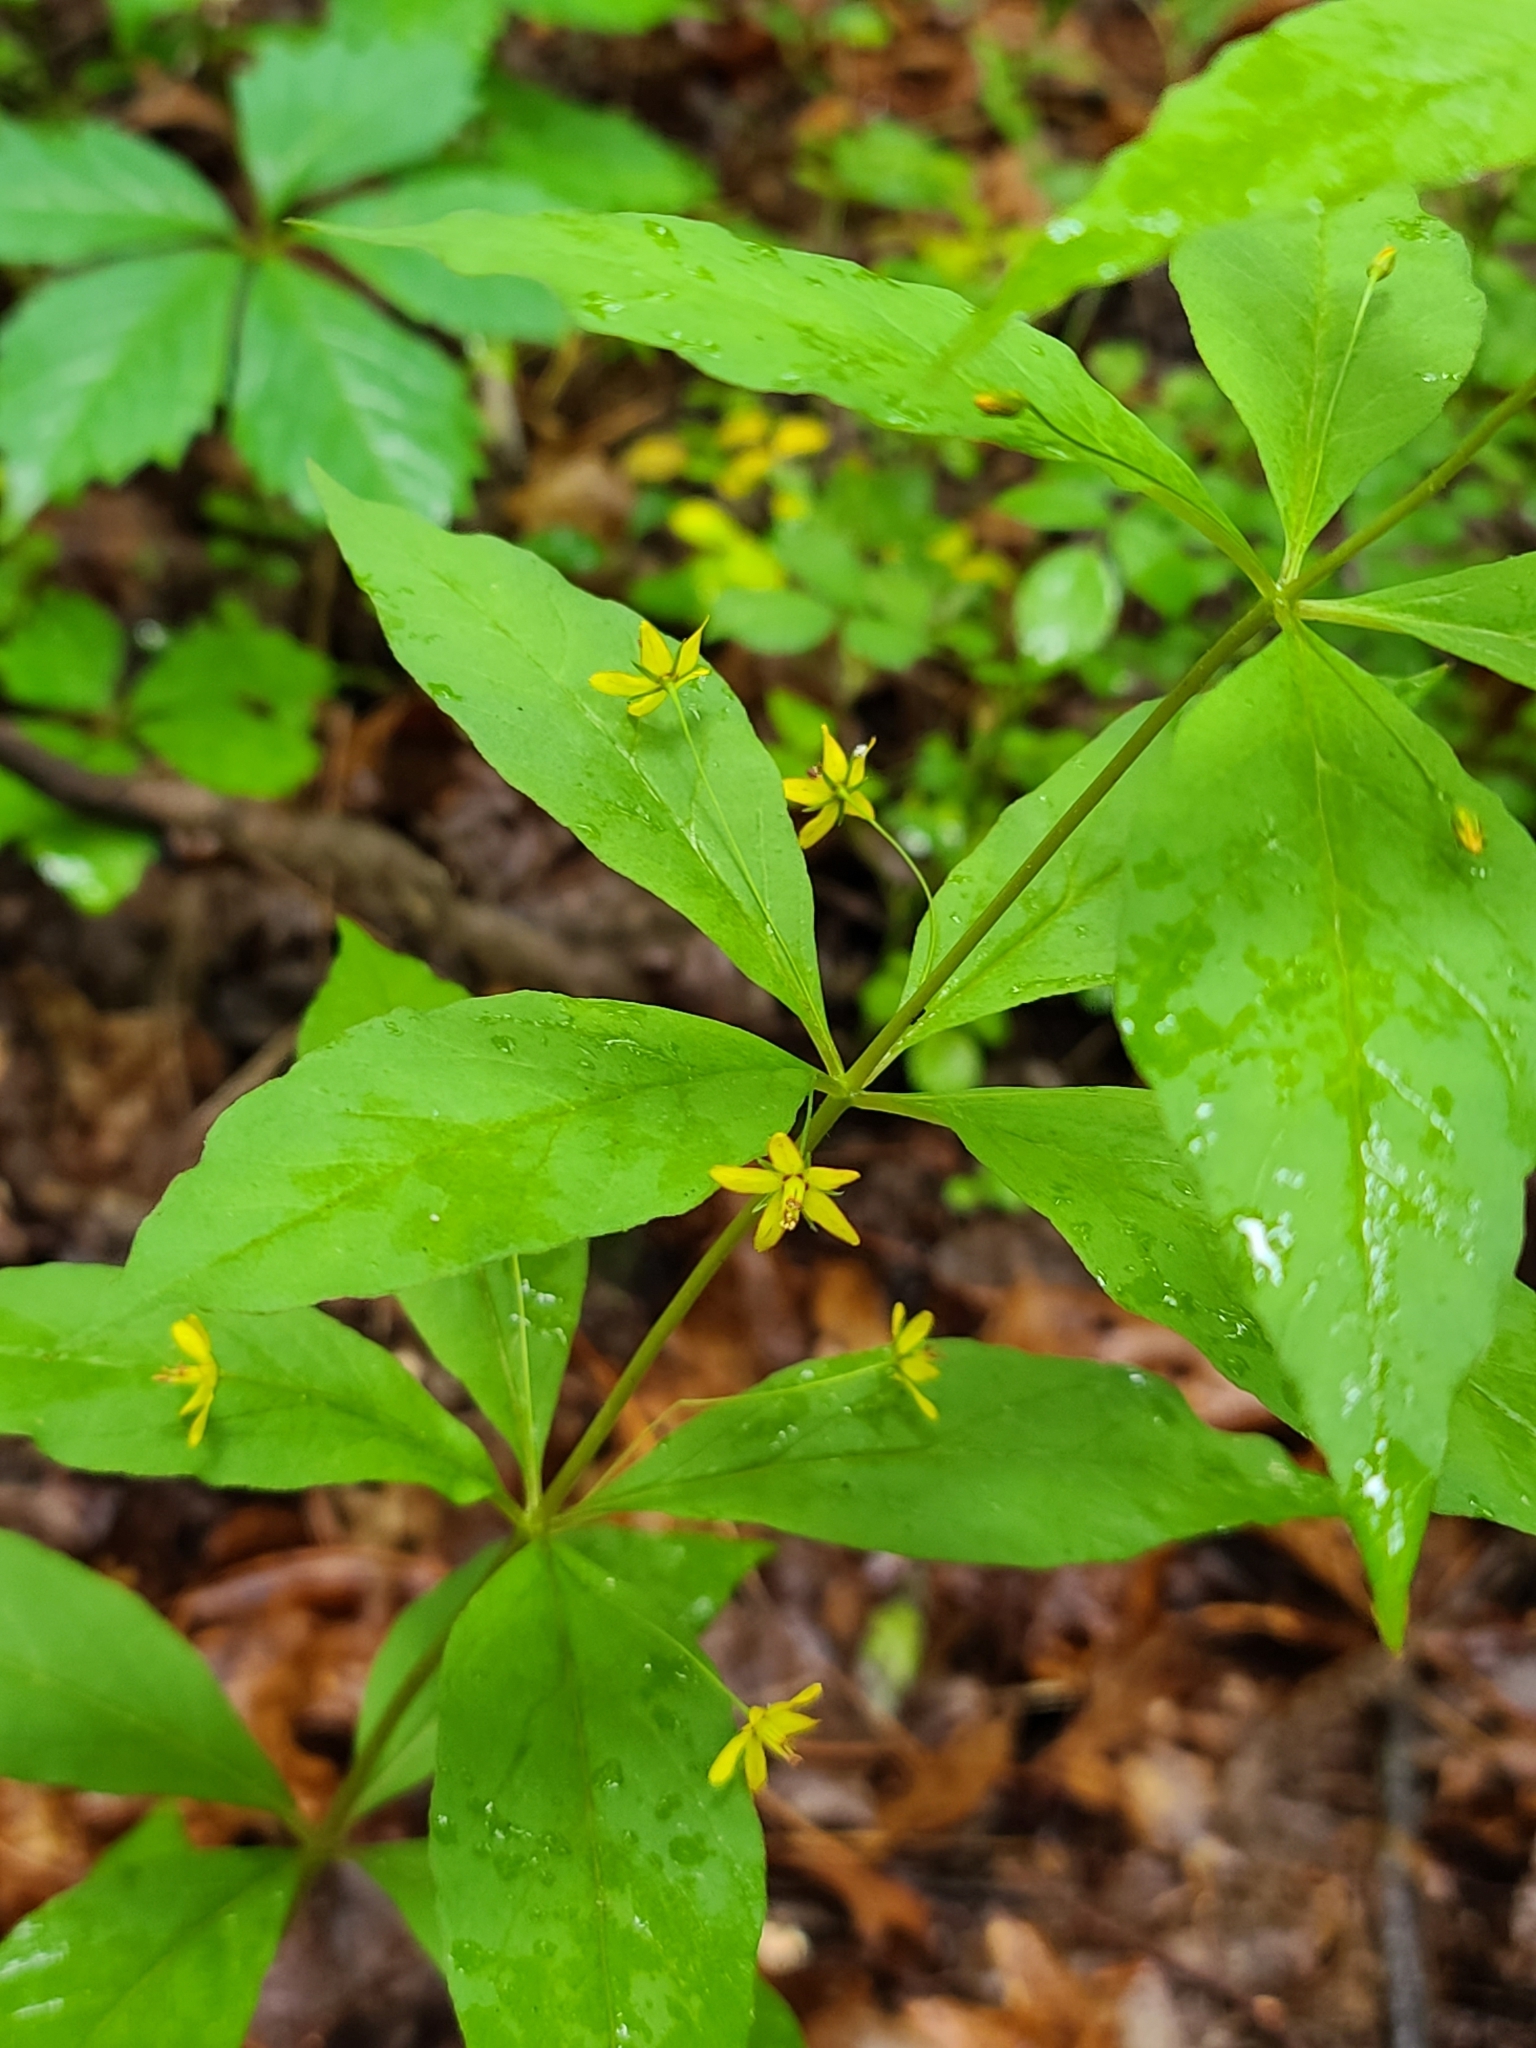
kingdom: Plantae
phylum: Tracheophyta
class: Magnoliopsida
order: Ericales
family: Primulaceae
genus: Lysimachia
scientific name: Lysimachia quadrifolia
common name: Whorled loosestrife
